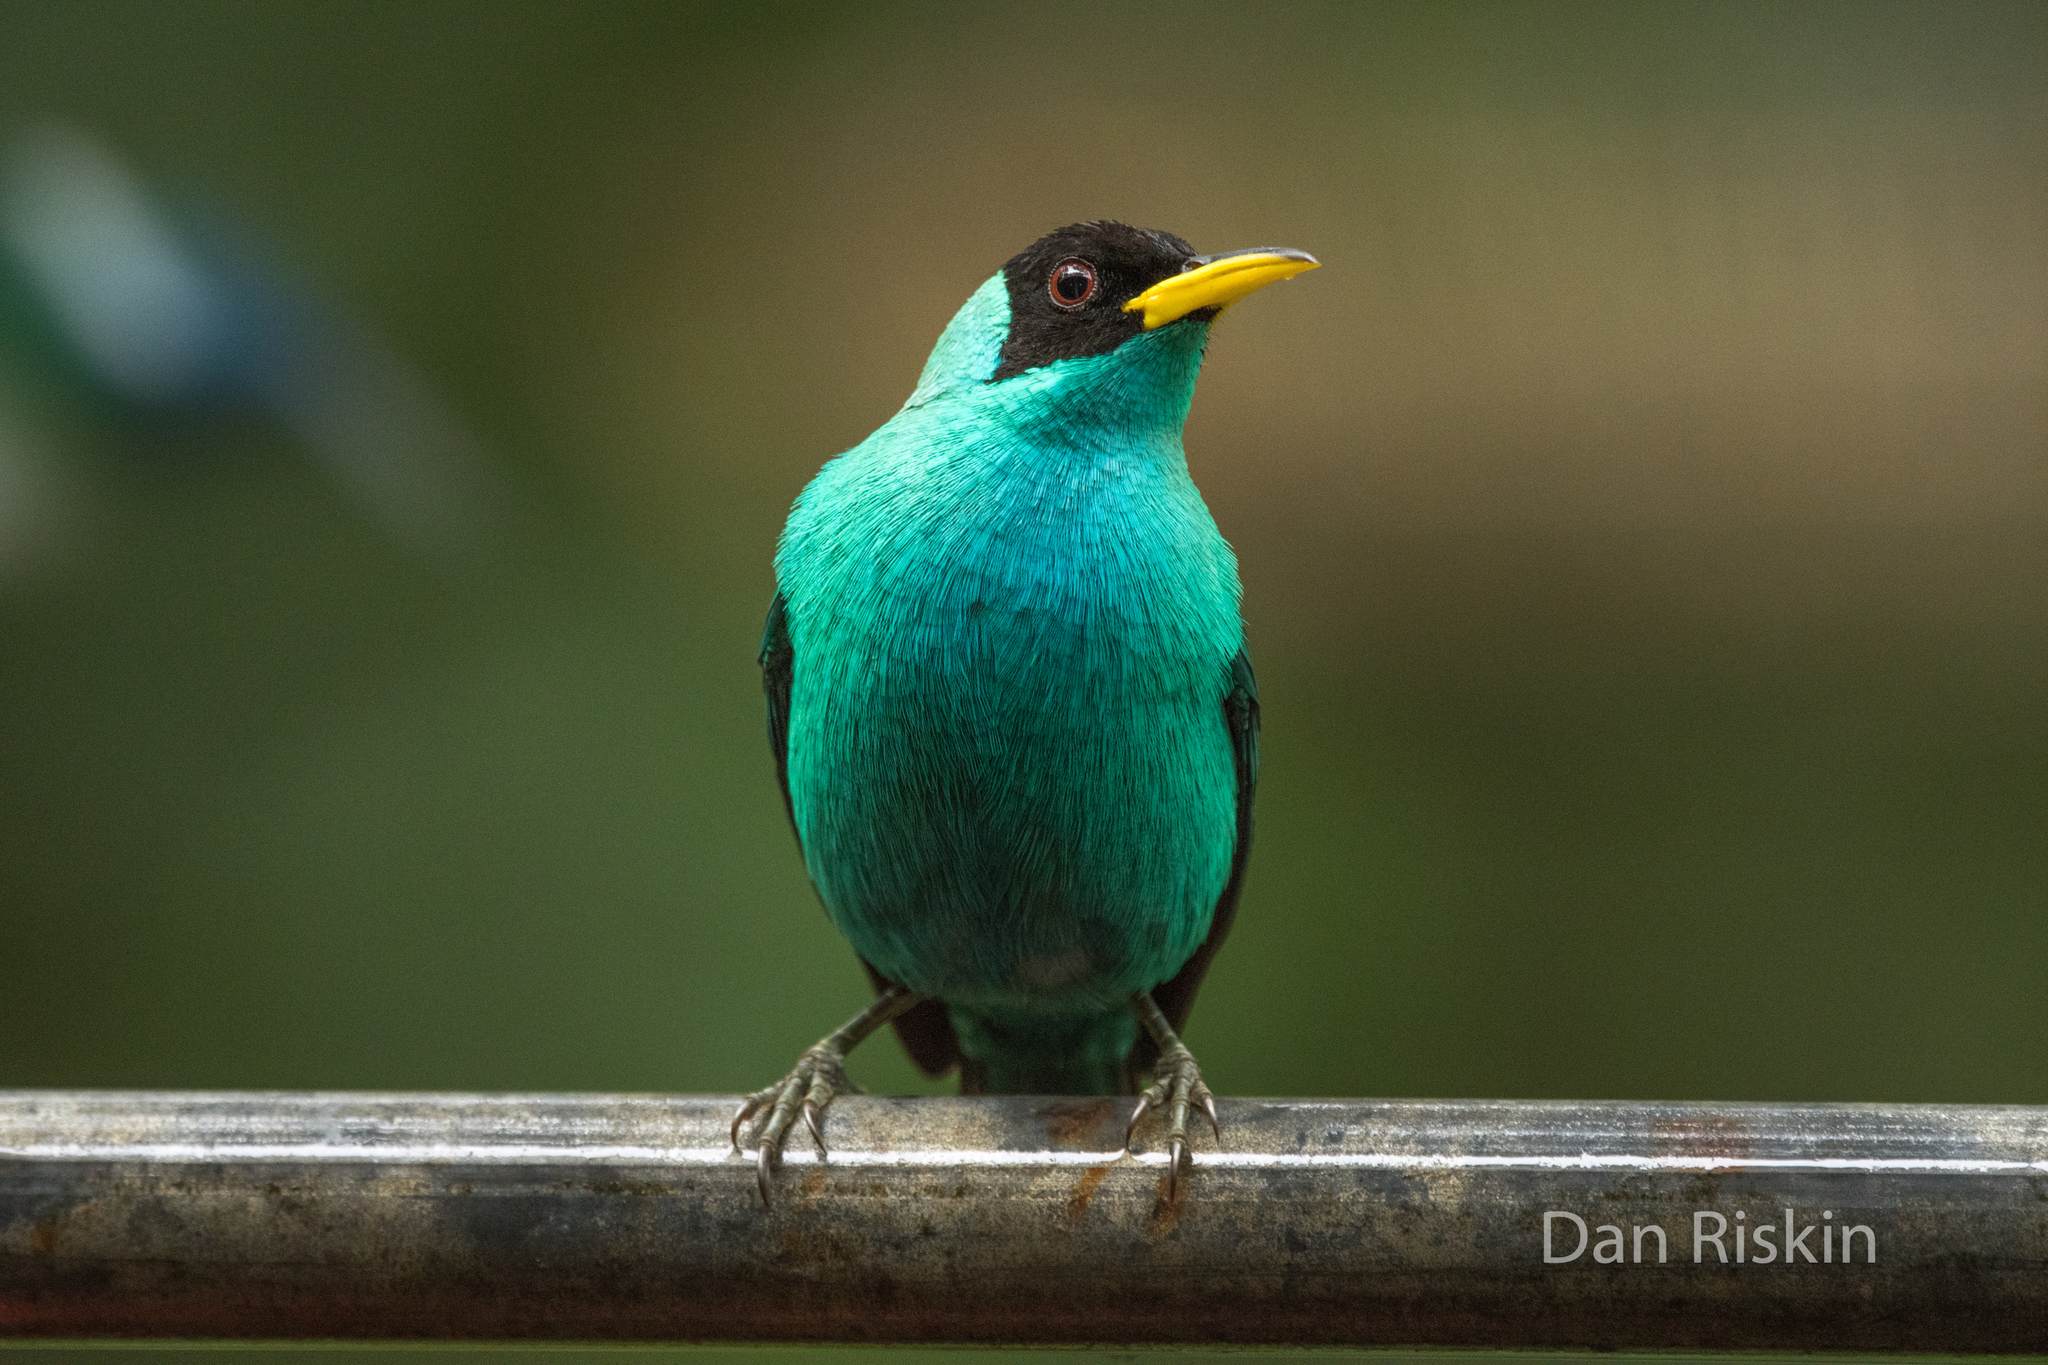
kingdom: Animalia
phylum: Chordata
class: Aves
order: Passeriformes
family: Thraupidae
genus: Chlorophanes
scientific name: Chlorophanes spiza
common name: Green honeycreeper
